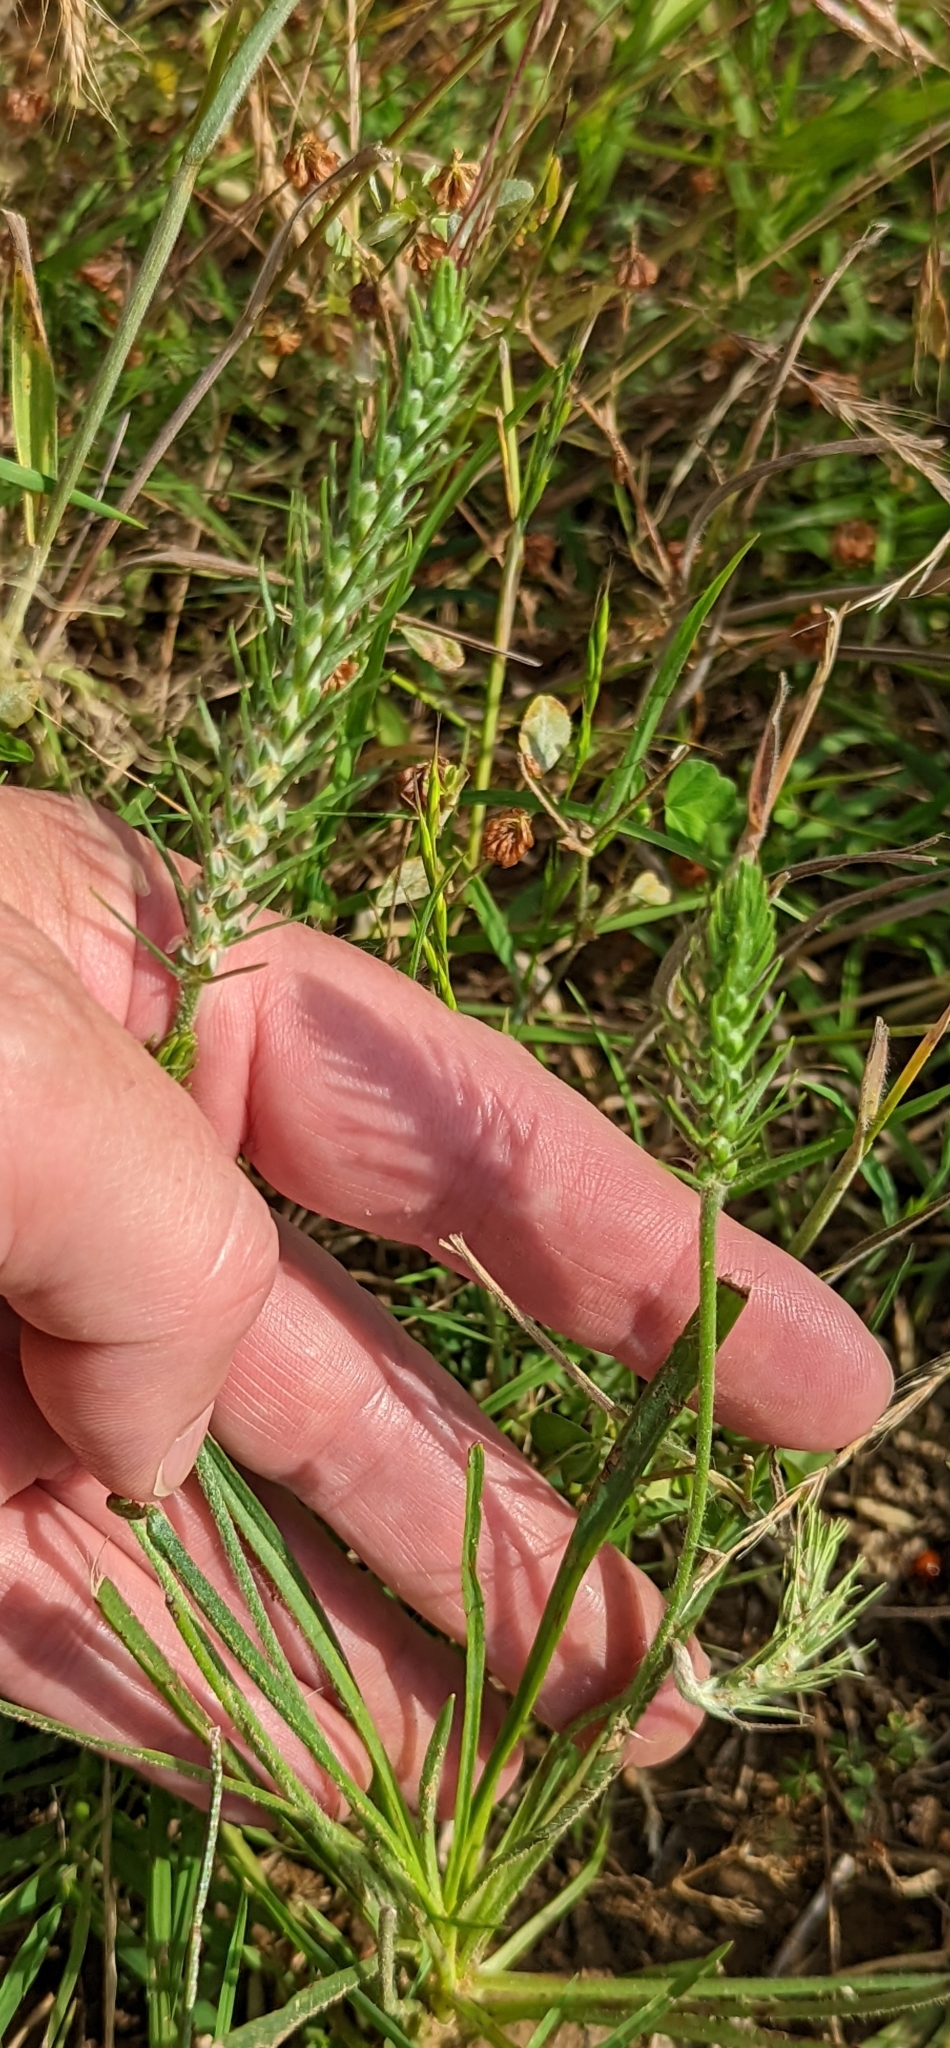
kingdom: Plantae
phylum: Tracheophyta
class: Magnoliopsida
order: Lamiales
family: Plantaginaceae
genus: Plantago
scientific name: Plantago aristata
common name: Bracted plantain
